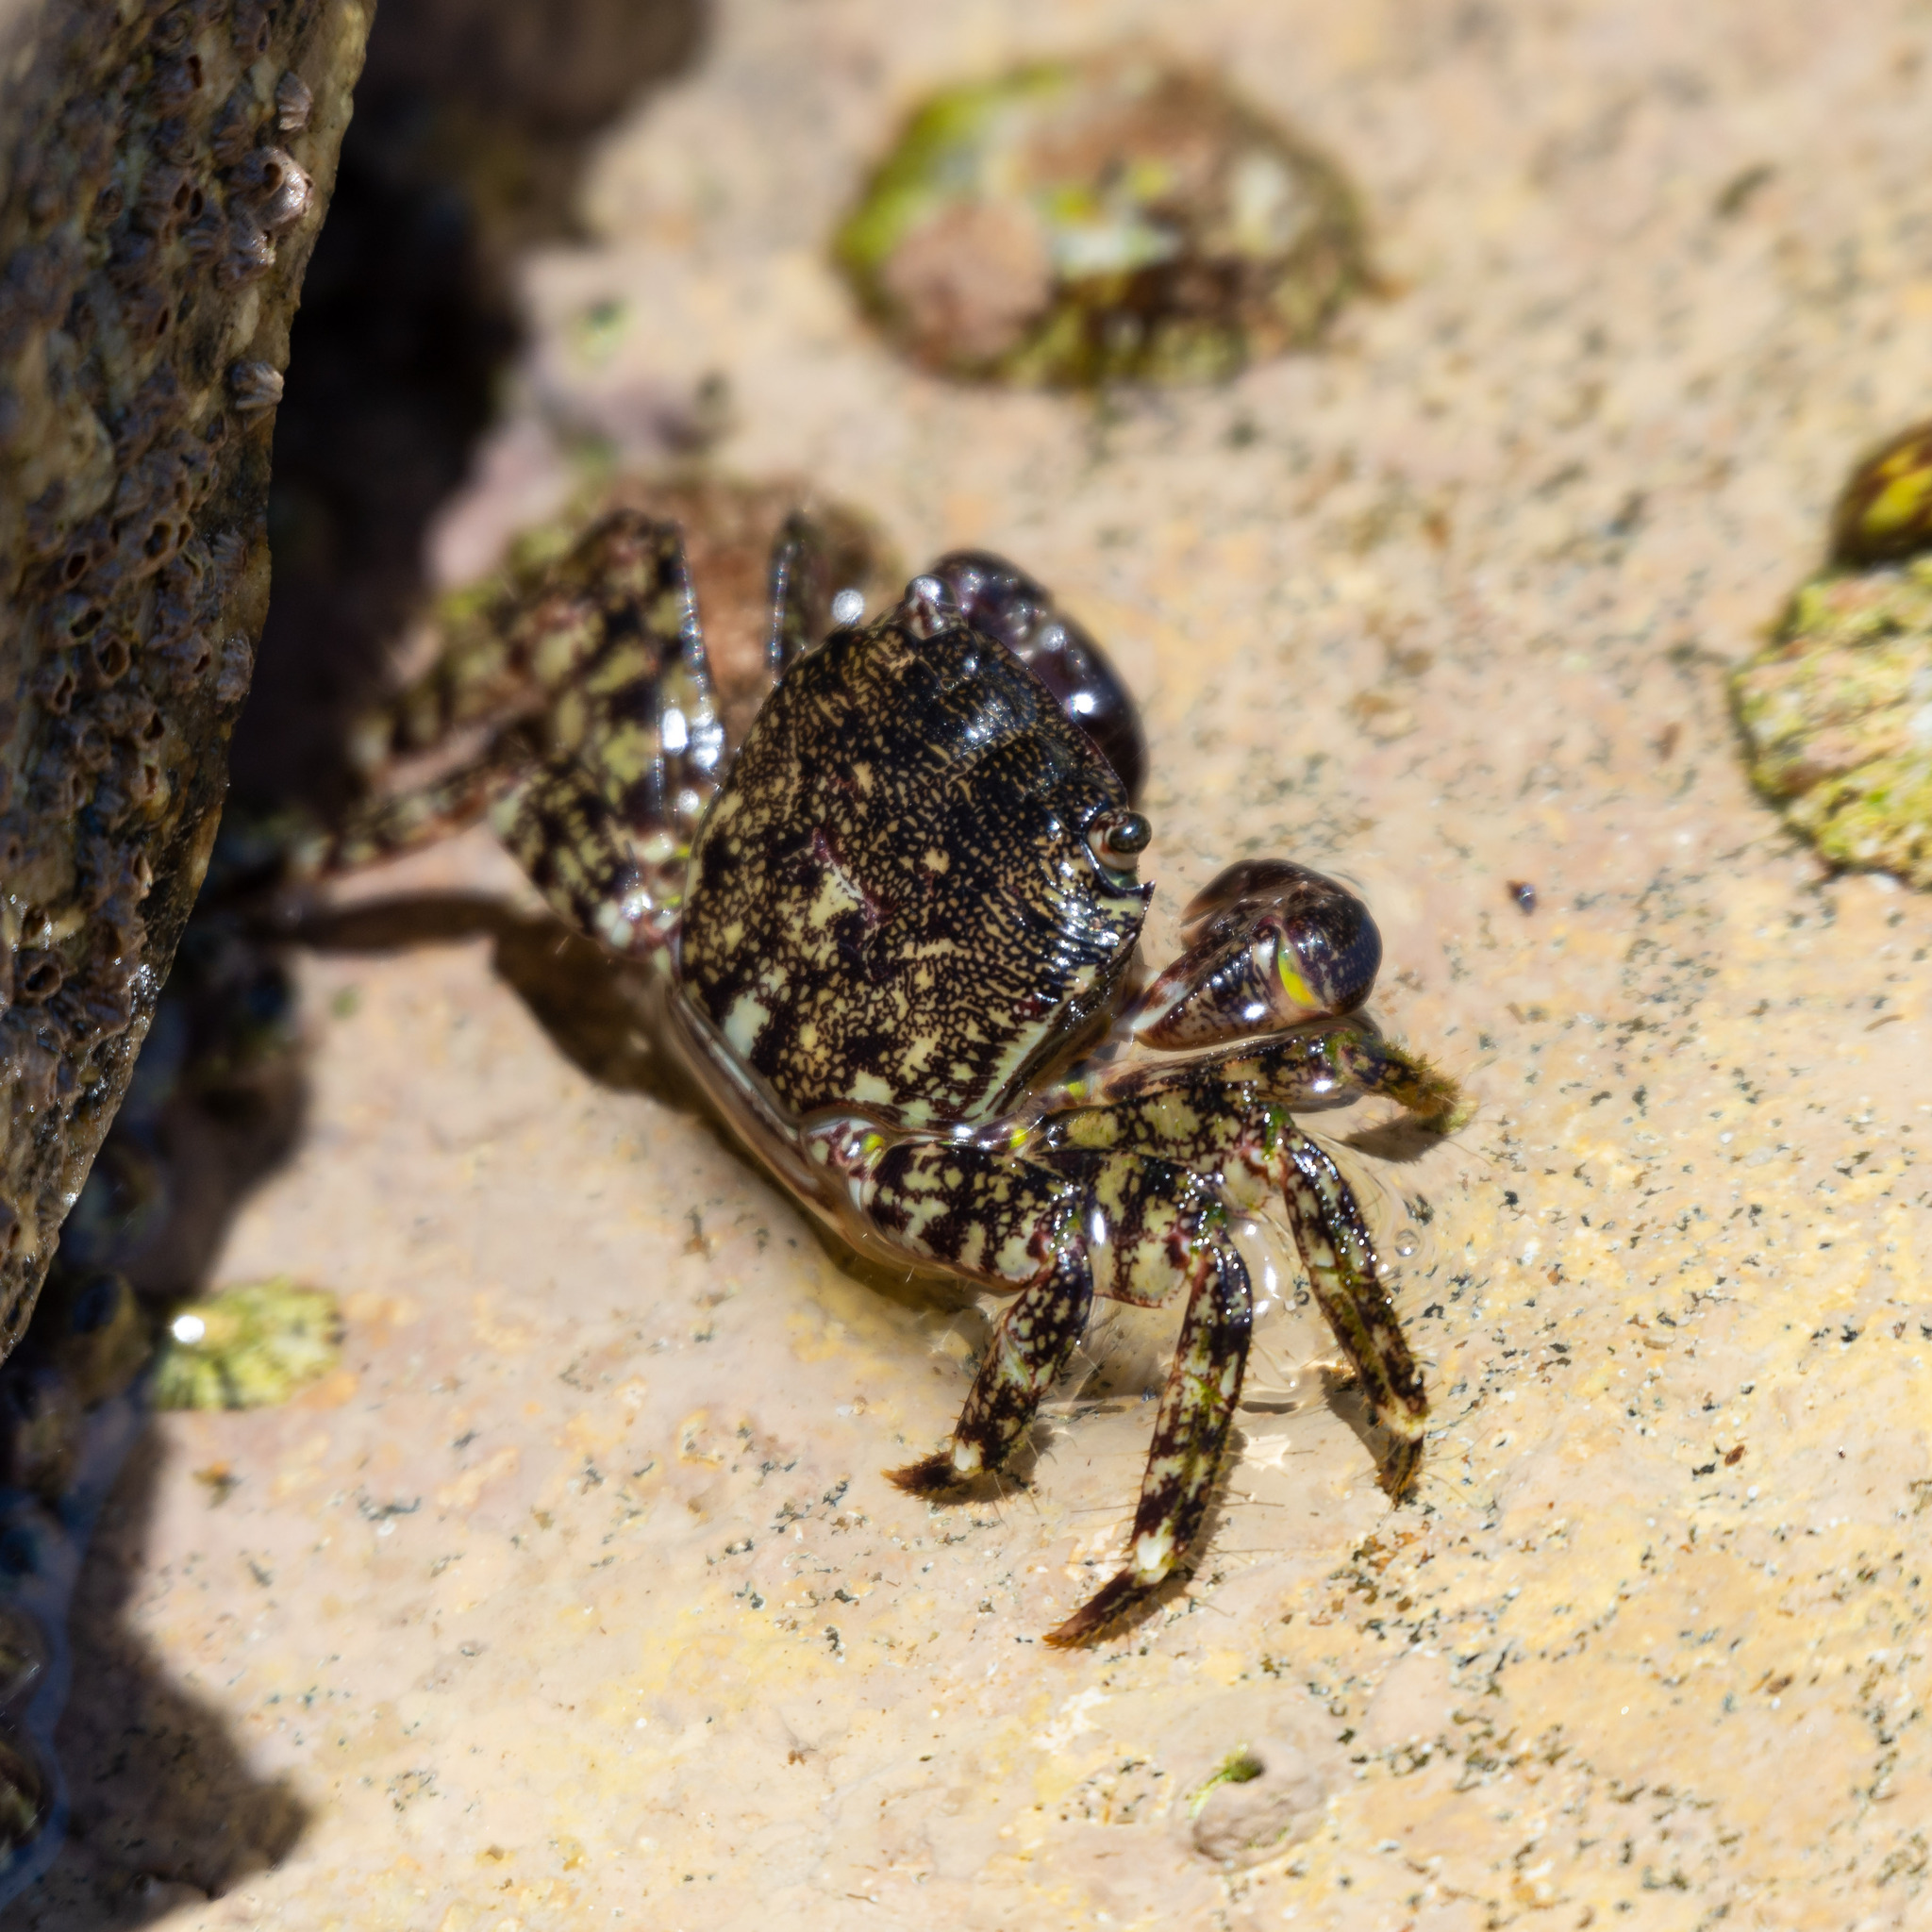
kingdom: Animalia
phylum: Arthropoda
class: Malacostraca
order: Decapoda
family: Grapsidae
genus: Pachygrapsus
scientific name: Pachygrapsus marmoratus
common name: Marbled rock crab
